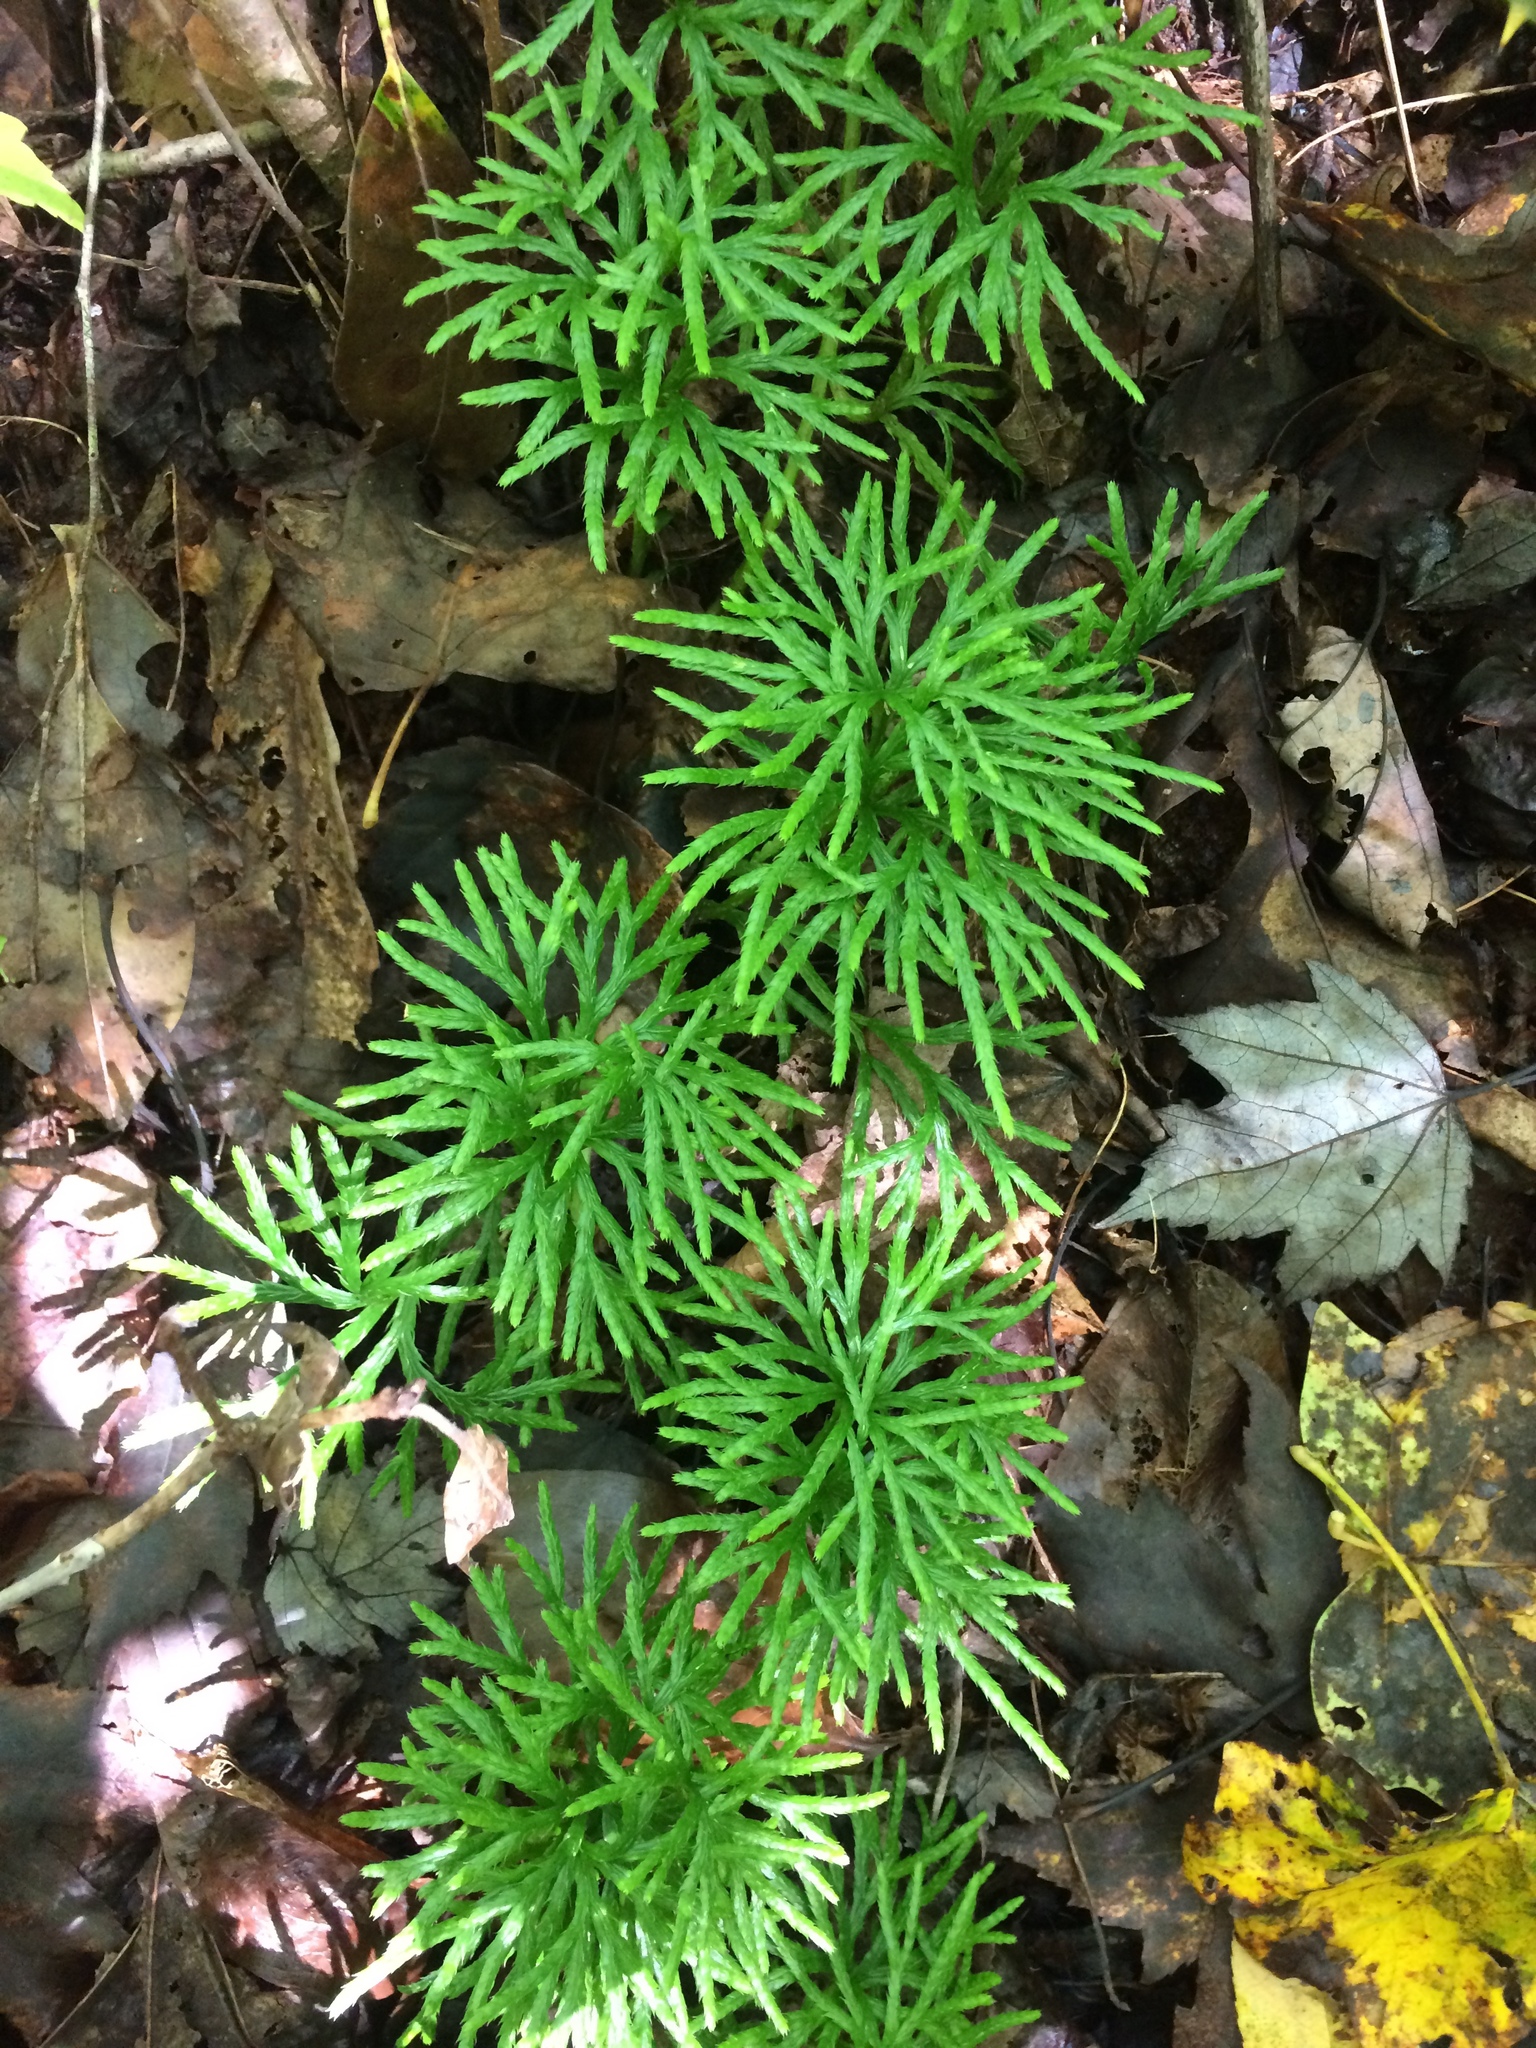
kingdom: Plantae
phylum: Tracheophyta
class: Lycopodiopsida
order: Lycopodiales
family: Lycopodiaceae
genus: Diphasiastrum
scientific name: Diphasiastrum digitatum
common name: Southern running-pine
